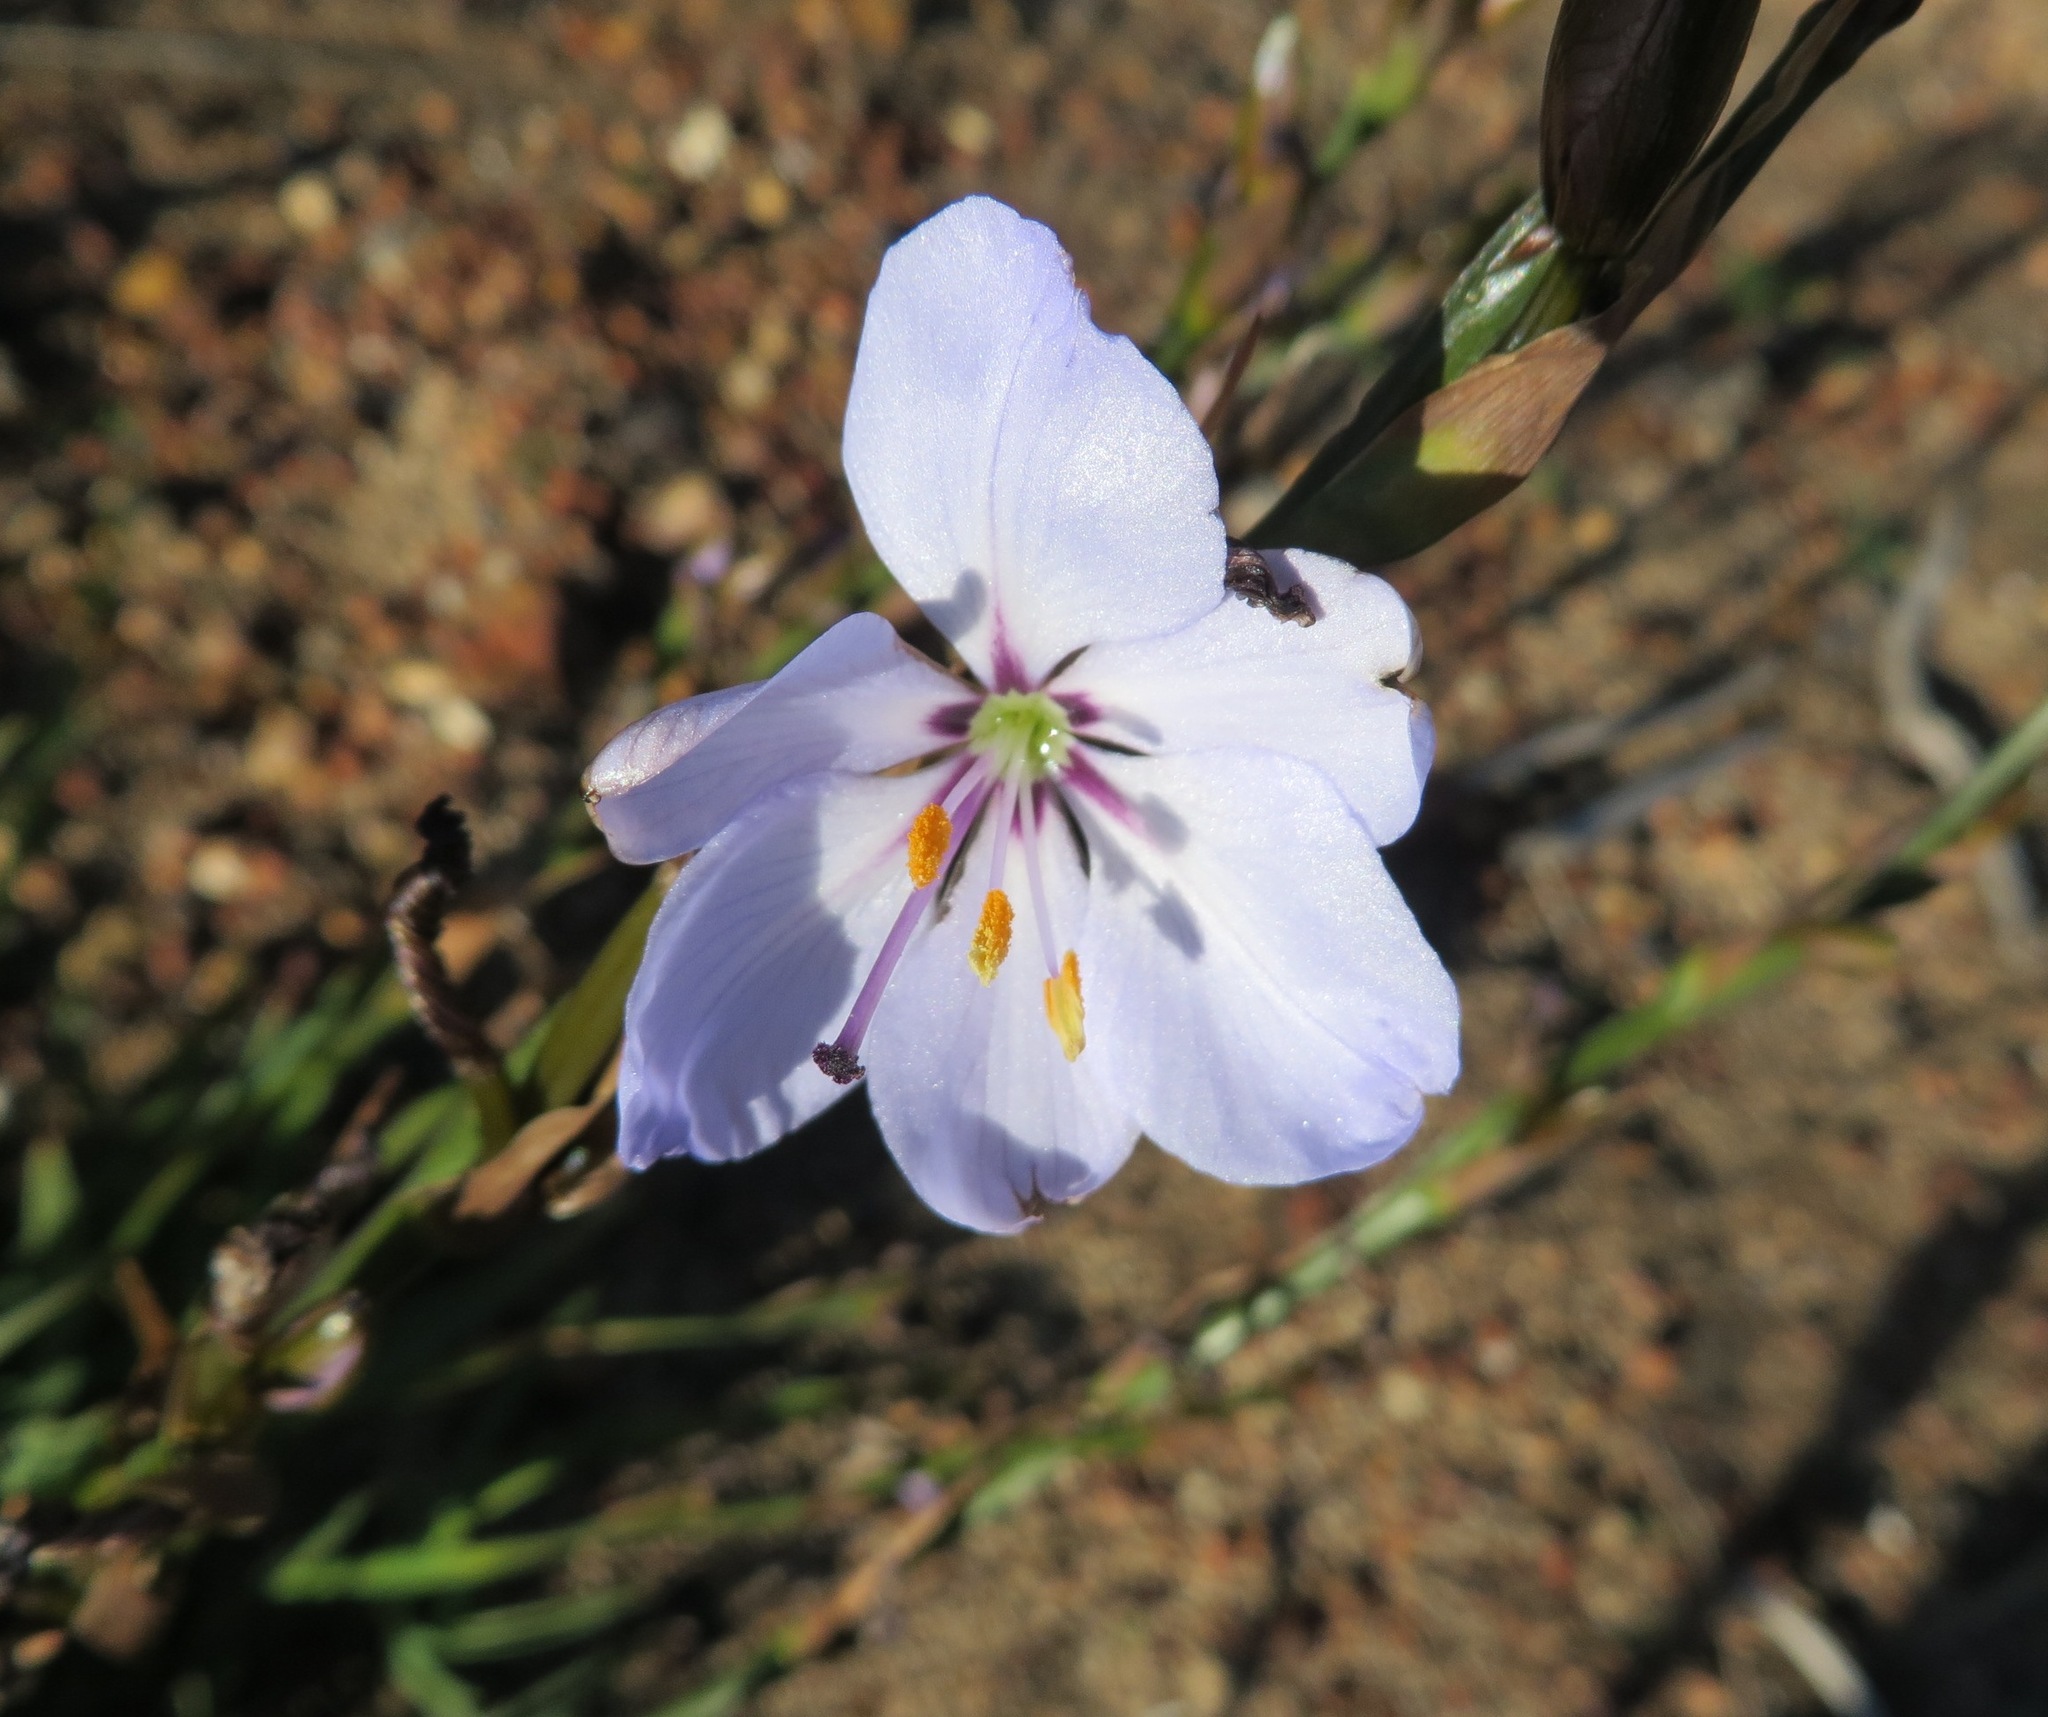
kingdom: Plantae
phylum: Tracheophyta
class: Liliopsida
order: Asparagales
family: Iridaceae
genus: Aristea
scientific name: Aristea spiralis
